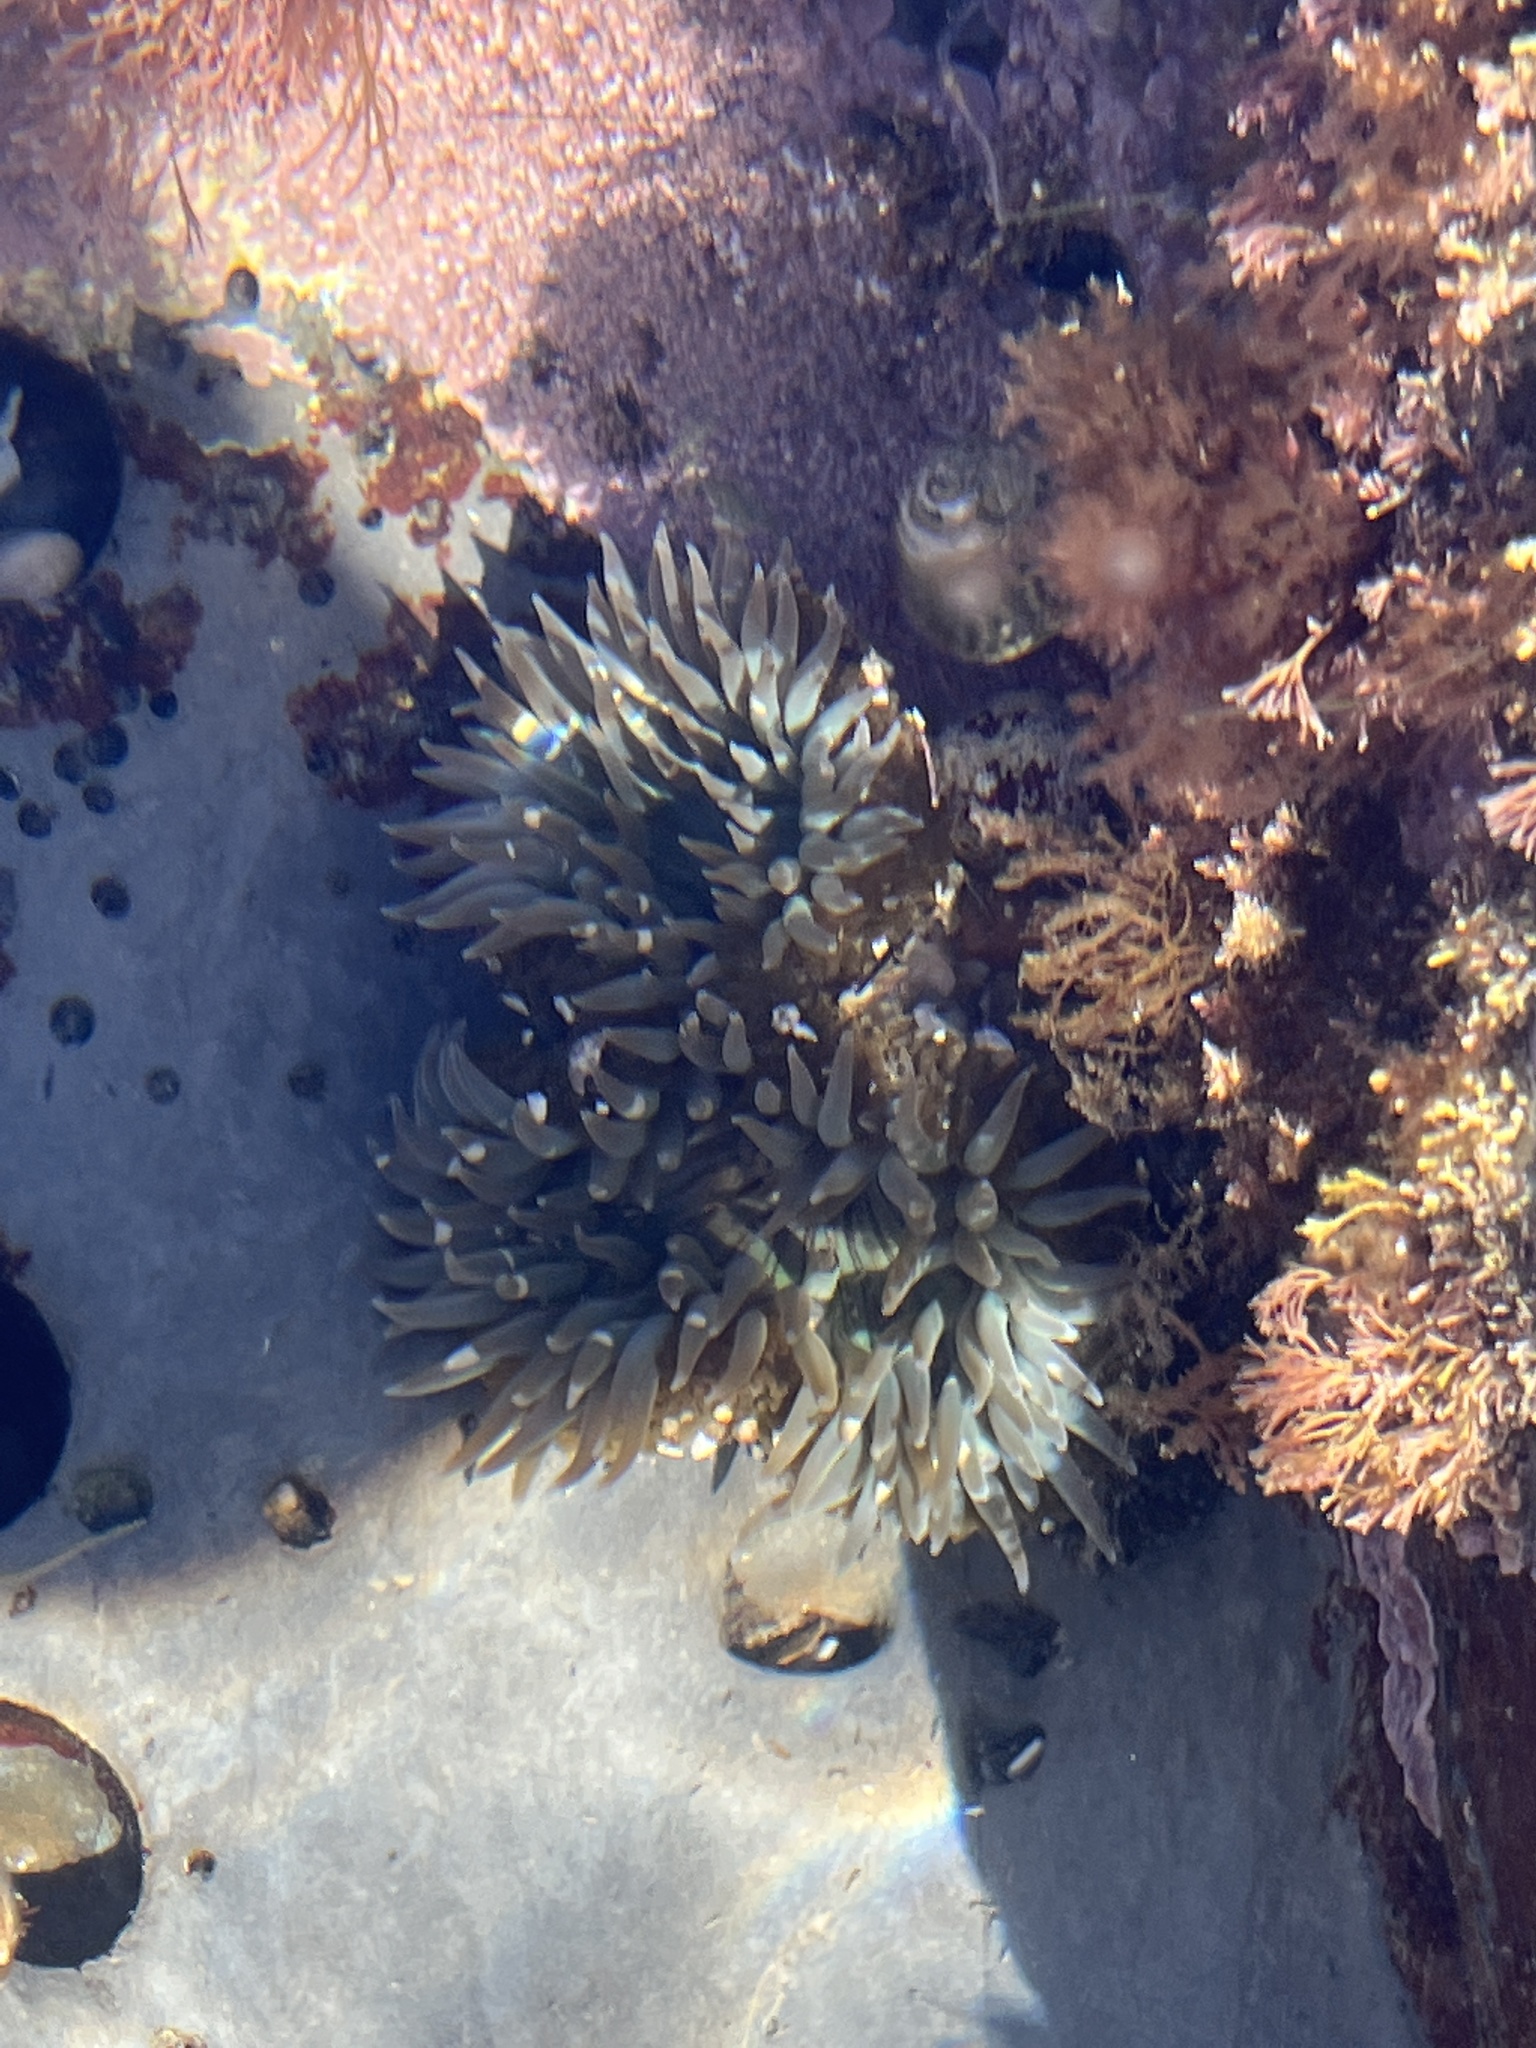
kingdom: Animalia
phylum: Cnidaria
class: Anthozoa
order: Actiniaria
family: Actiniidae
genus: Anthopleura
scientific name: Anthopleura sola
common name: Sun anemone
